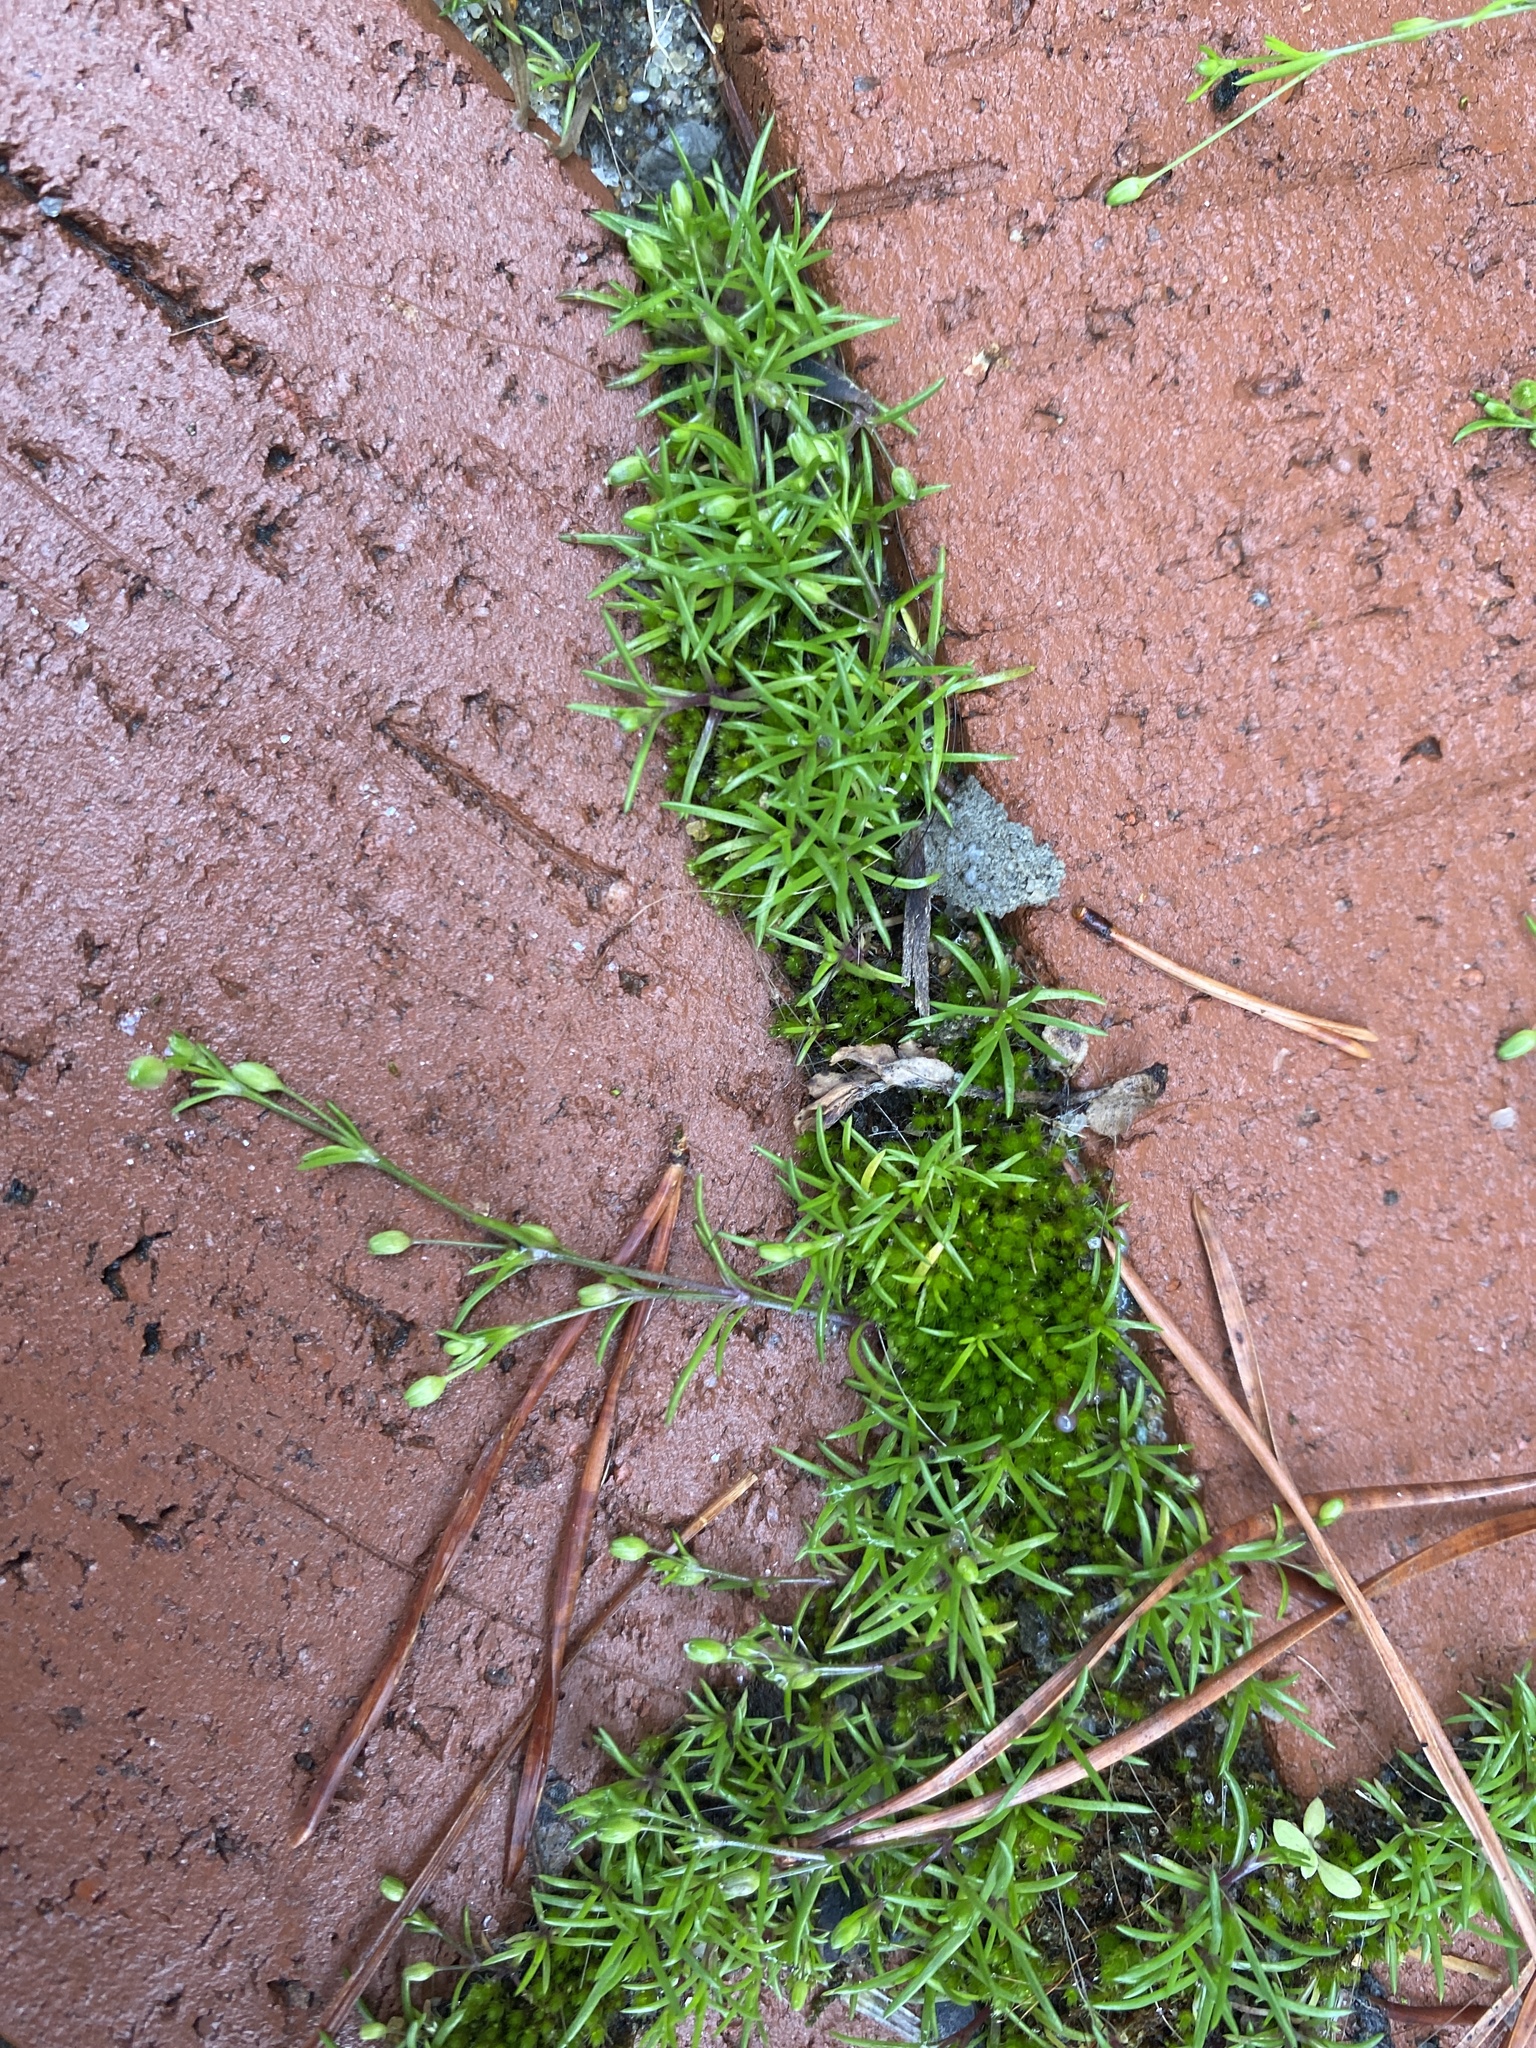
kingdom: Plantae
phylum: Tracheophyta
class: Magnoliopsida
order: Caryophyllales
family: Caryophyllaceae
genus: Sagina
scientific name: Sagina decumbens
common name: Decumbent pearlwort
